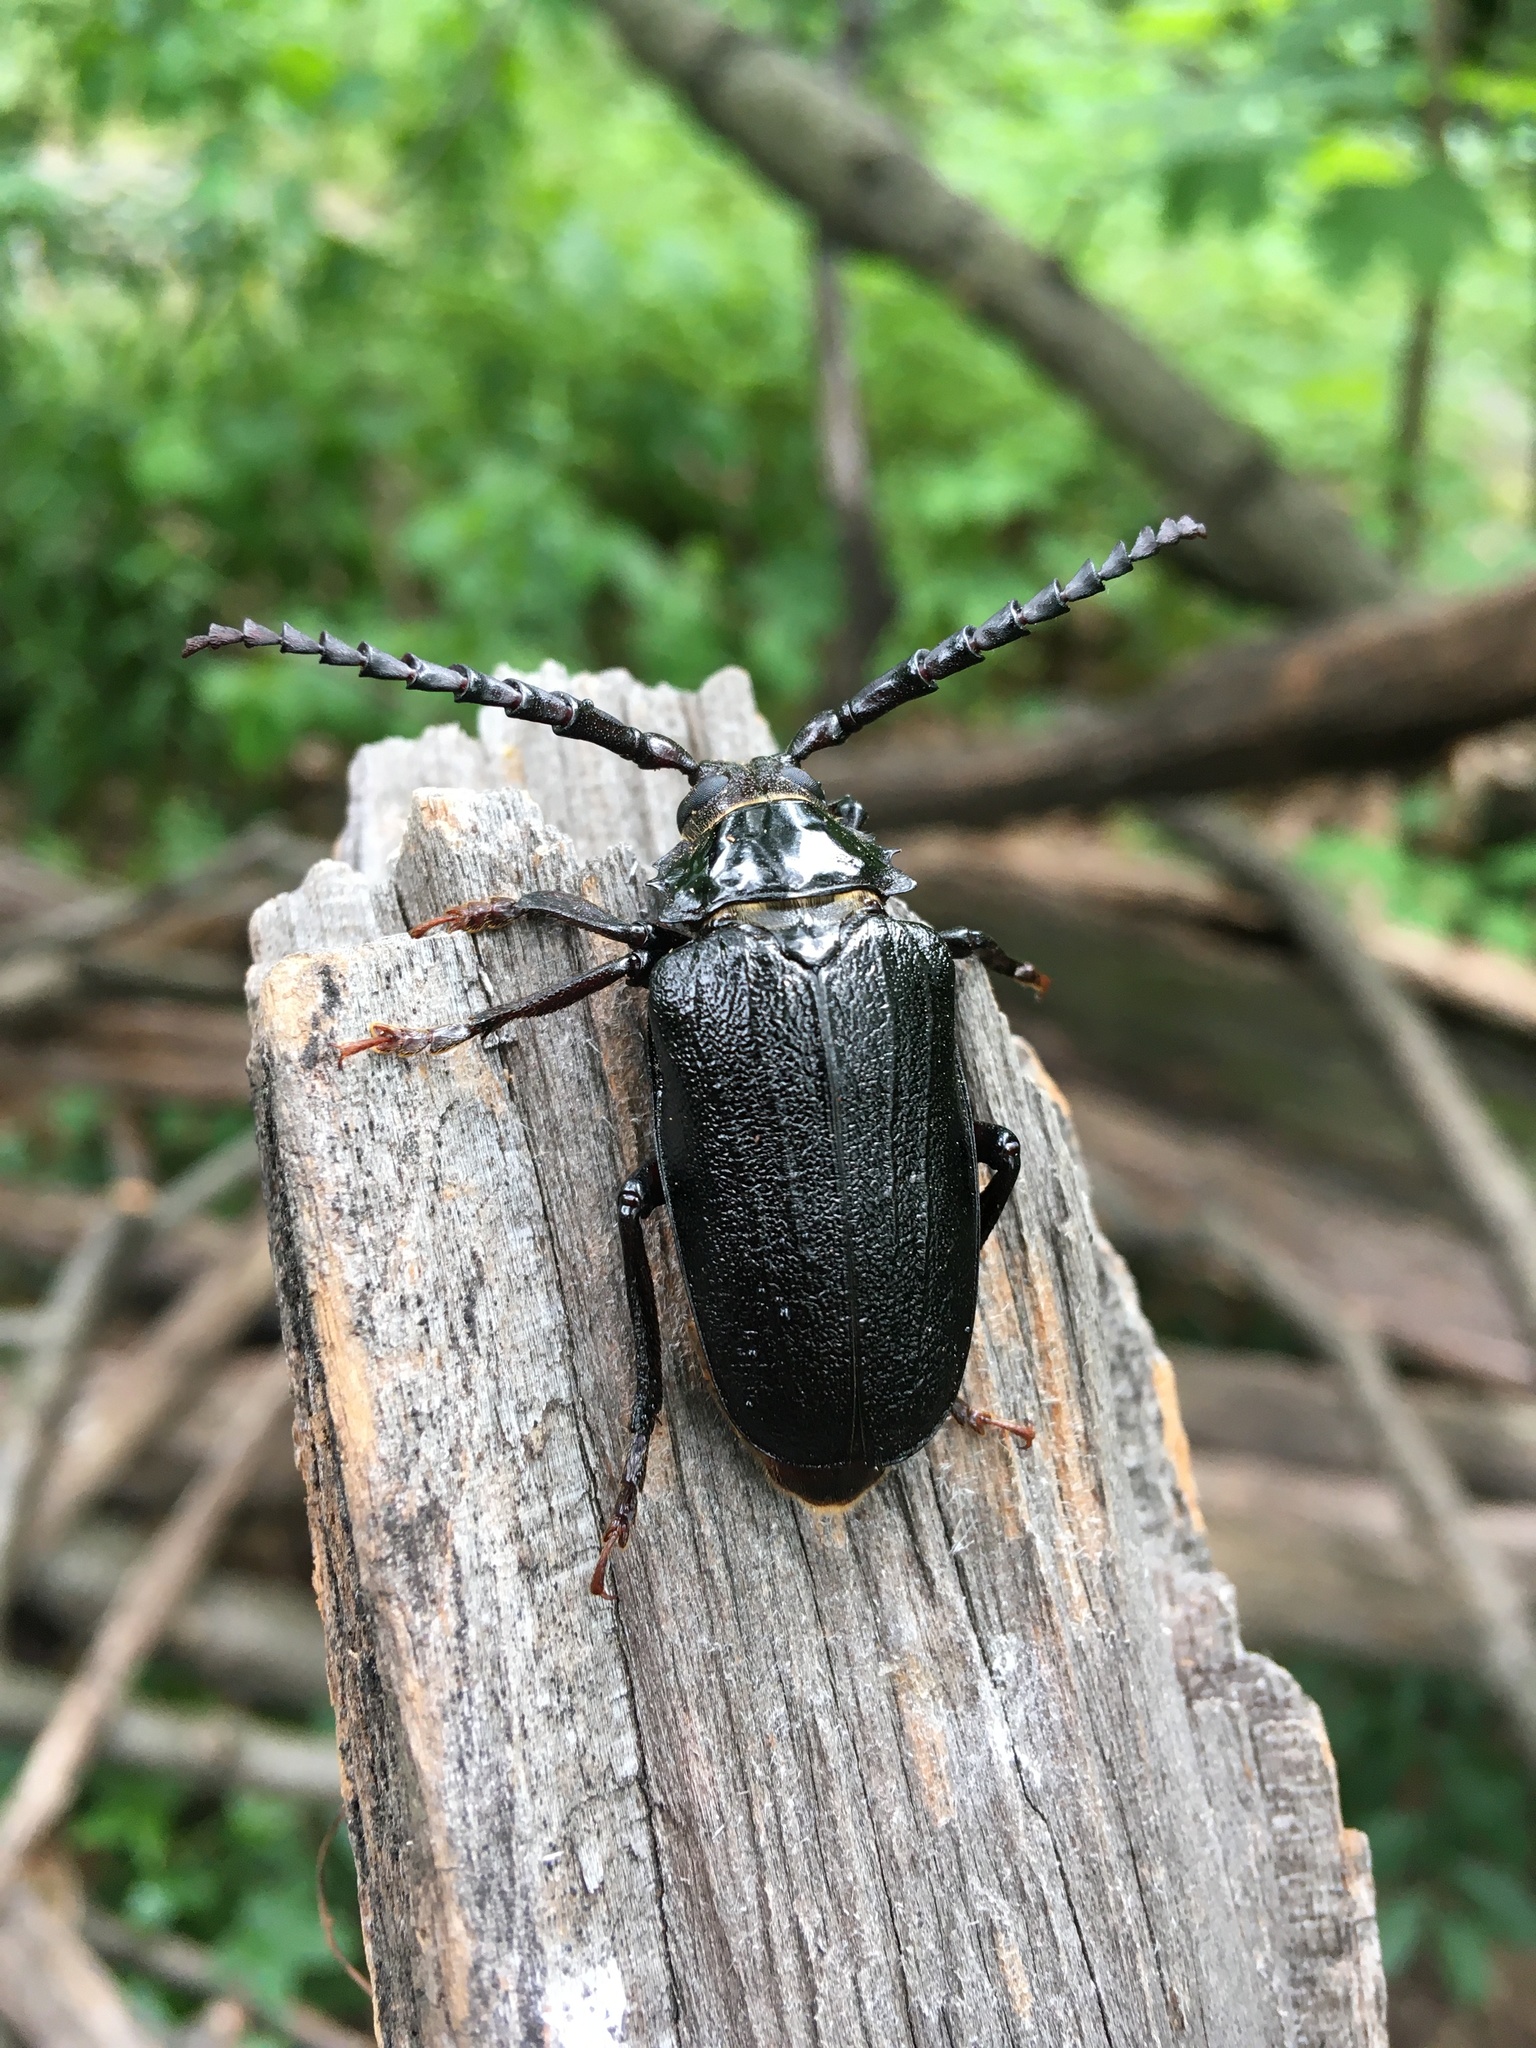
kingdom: Animalia
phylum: Arthropoda
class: Insecta
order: Coleoptera
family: Cerambycidae
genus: Prionus
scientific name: Prionus laticollis
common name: Broad necked prionus
